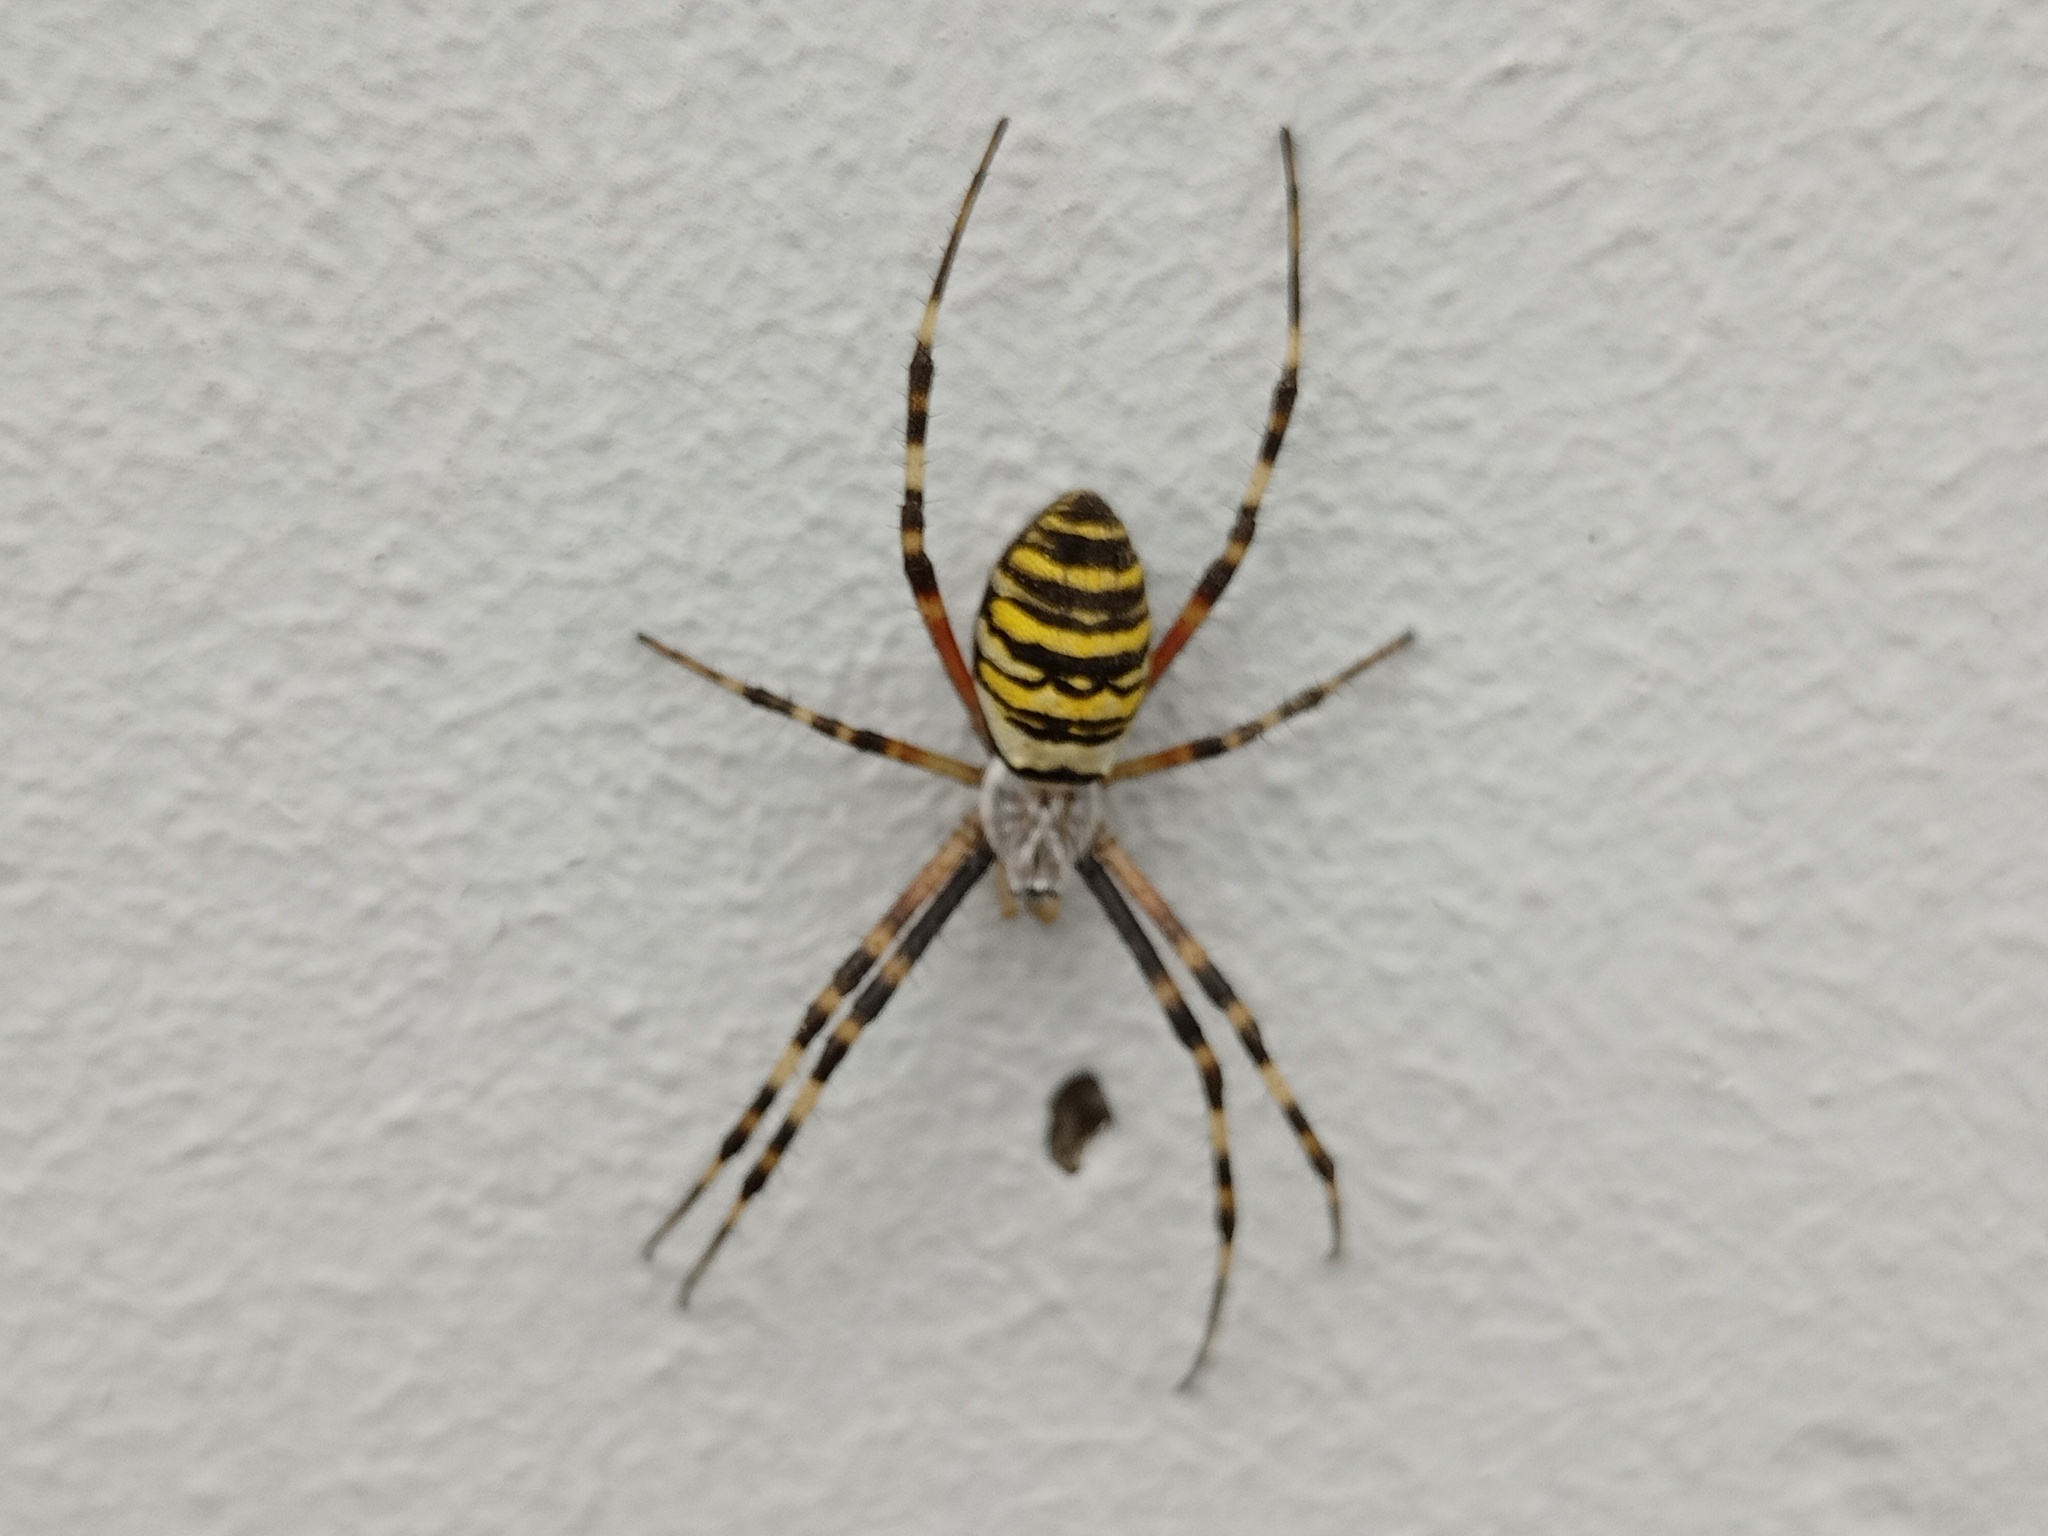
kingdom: Animalia
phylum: Arthropoda
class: Arachnida
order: Araneae
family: Araneidae
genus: Argiope
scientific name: Argiope bruennichi
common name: Wasp spider
